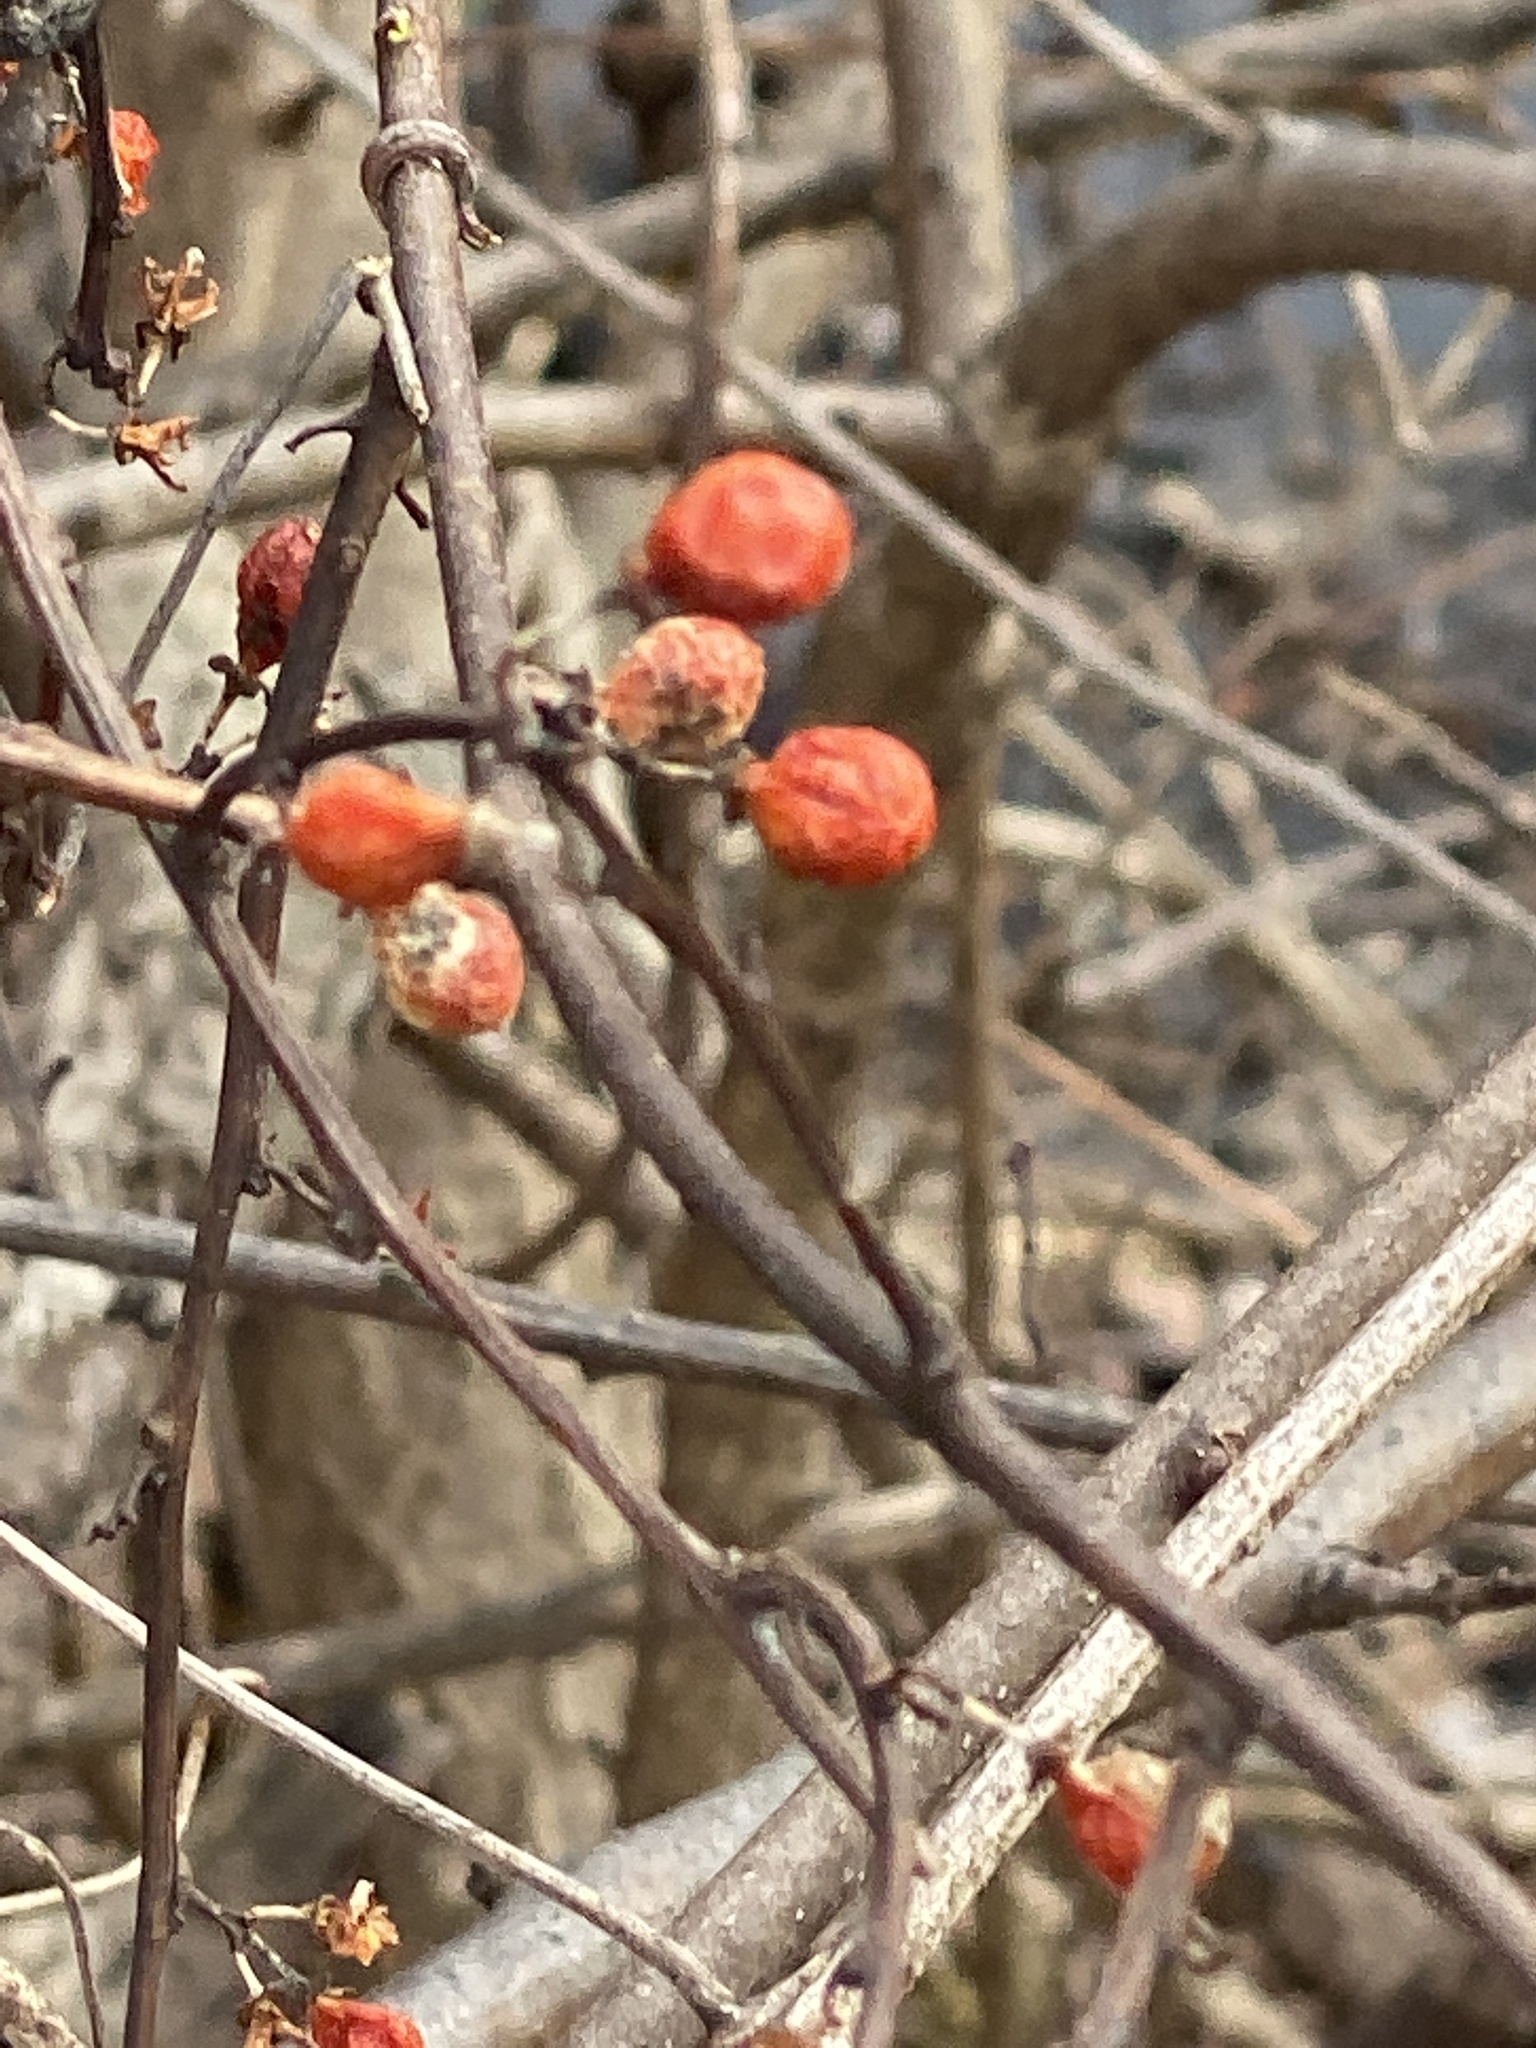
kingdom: Plantae
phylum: Tracheophyta
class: Magnoliopsida
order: Celastrales
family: Celastraceae
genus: Celastrus
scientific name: Celastrus orbiculatus
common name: Oriental bittersweet
